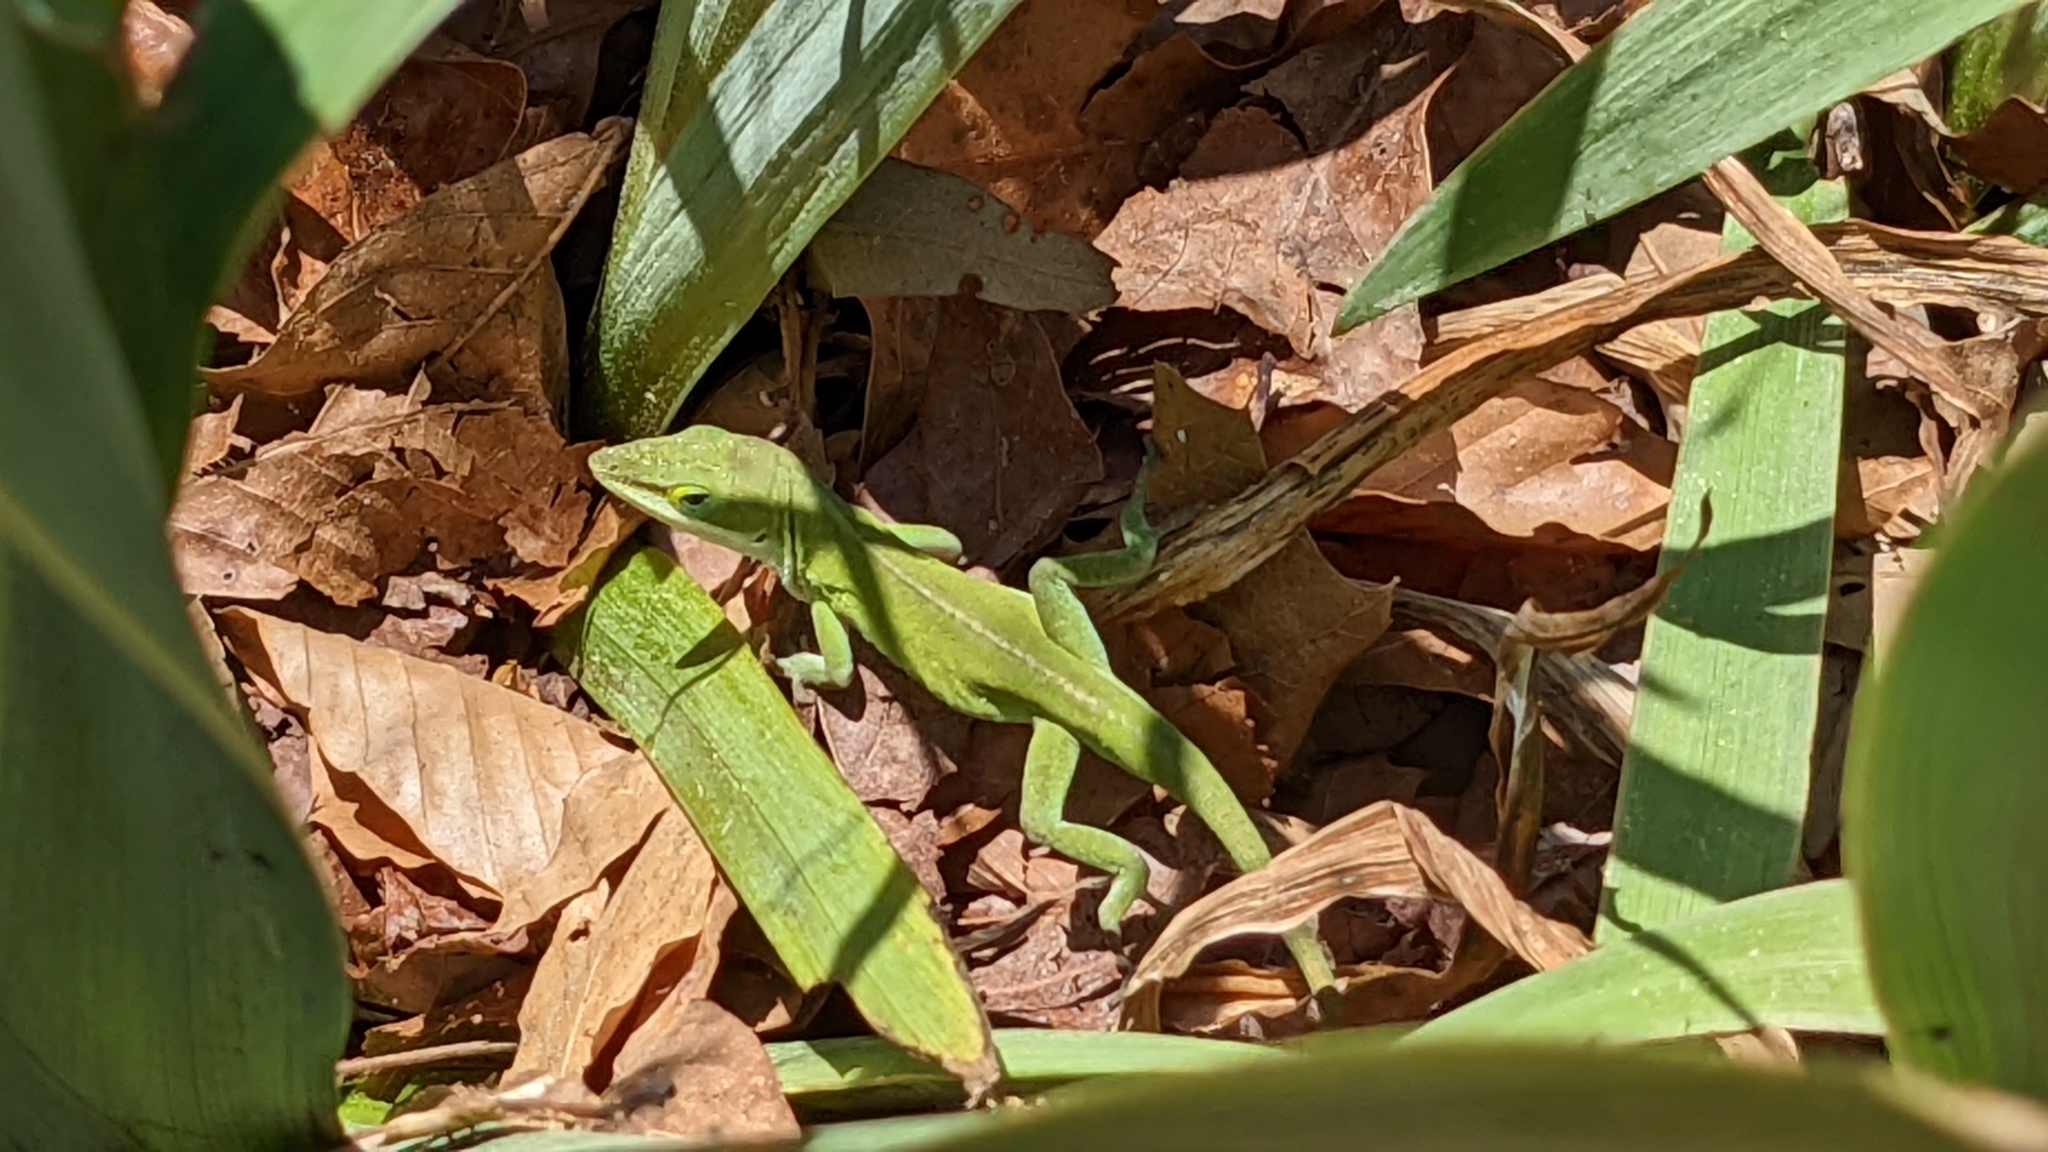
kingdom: Animalia
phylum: Chordata
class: Squamata
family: Dactyloidae
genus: Anolis
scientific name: Anolis carolinensis
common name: Green anole
